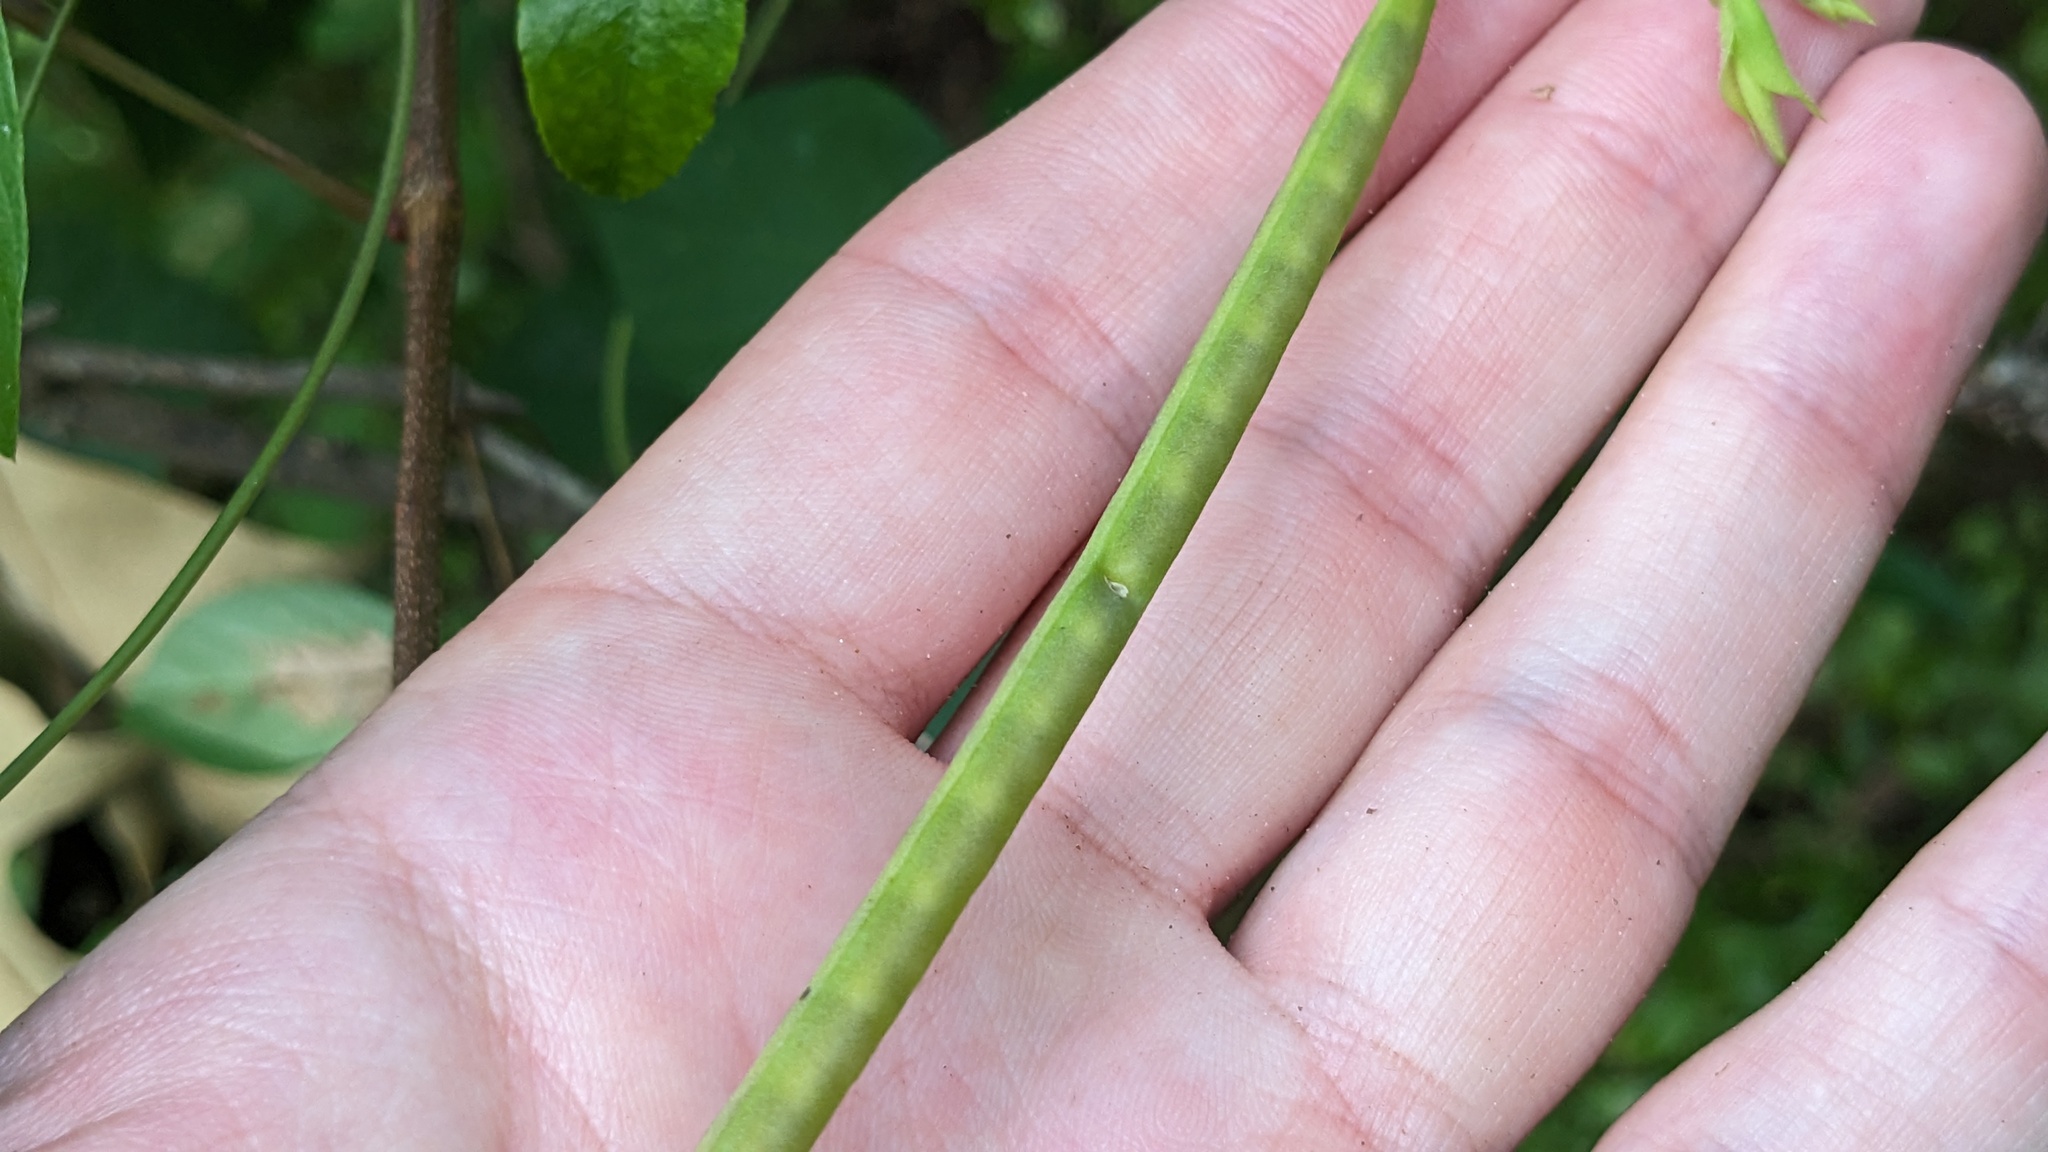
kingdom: Plantae
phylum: Tracheophyta
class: Magnoliopsida
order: Fabales
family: Fabaceae
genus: Centrosema
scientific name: Centrosema virginianum
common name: Butterfly-pea
